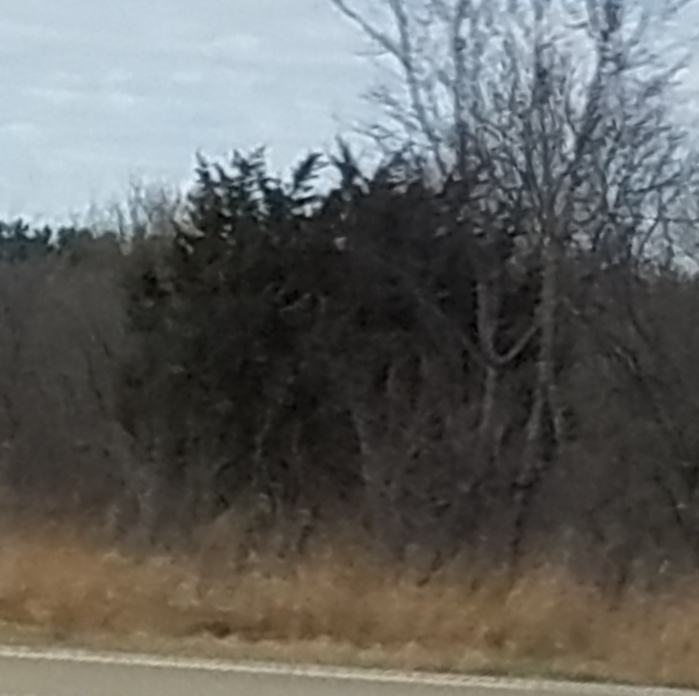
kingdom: Plantae
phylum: Tracheophyta
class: Pinopsida
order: Pinales
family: Cupressaceae
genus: Juniperus
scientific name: Juniperus virginiana
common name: Red juniper
